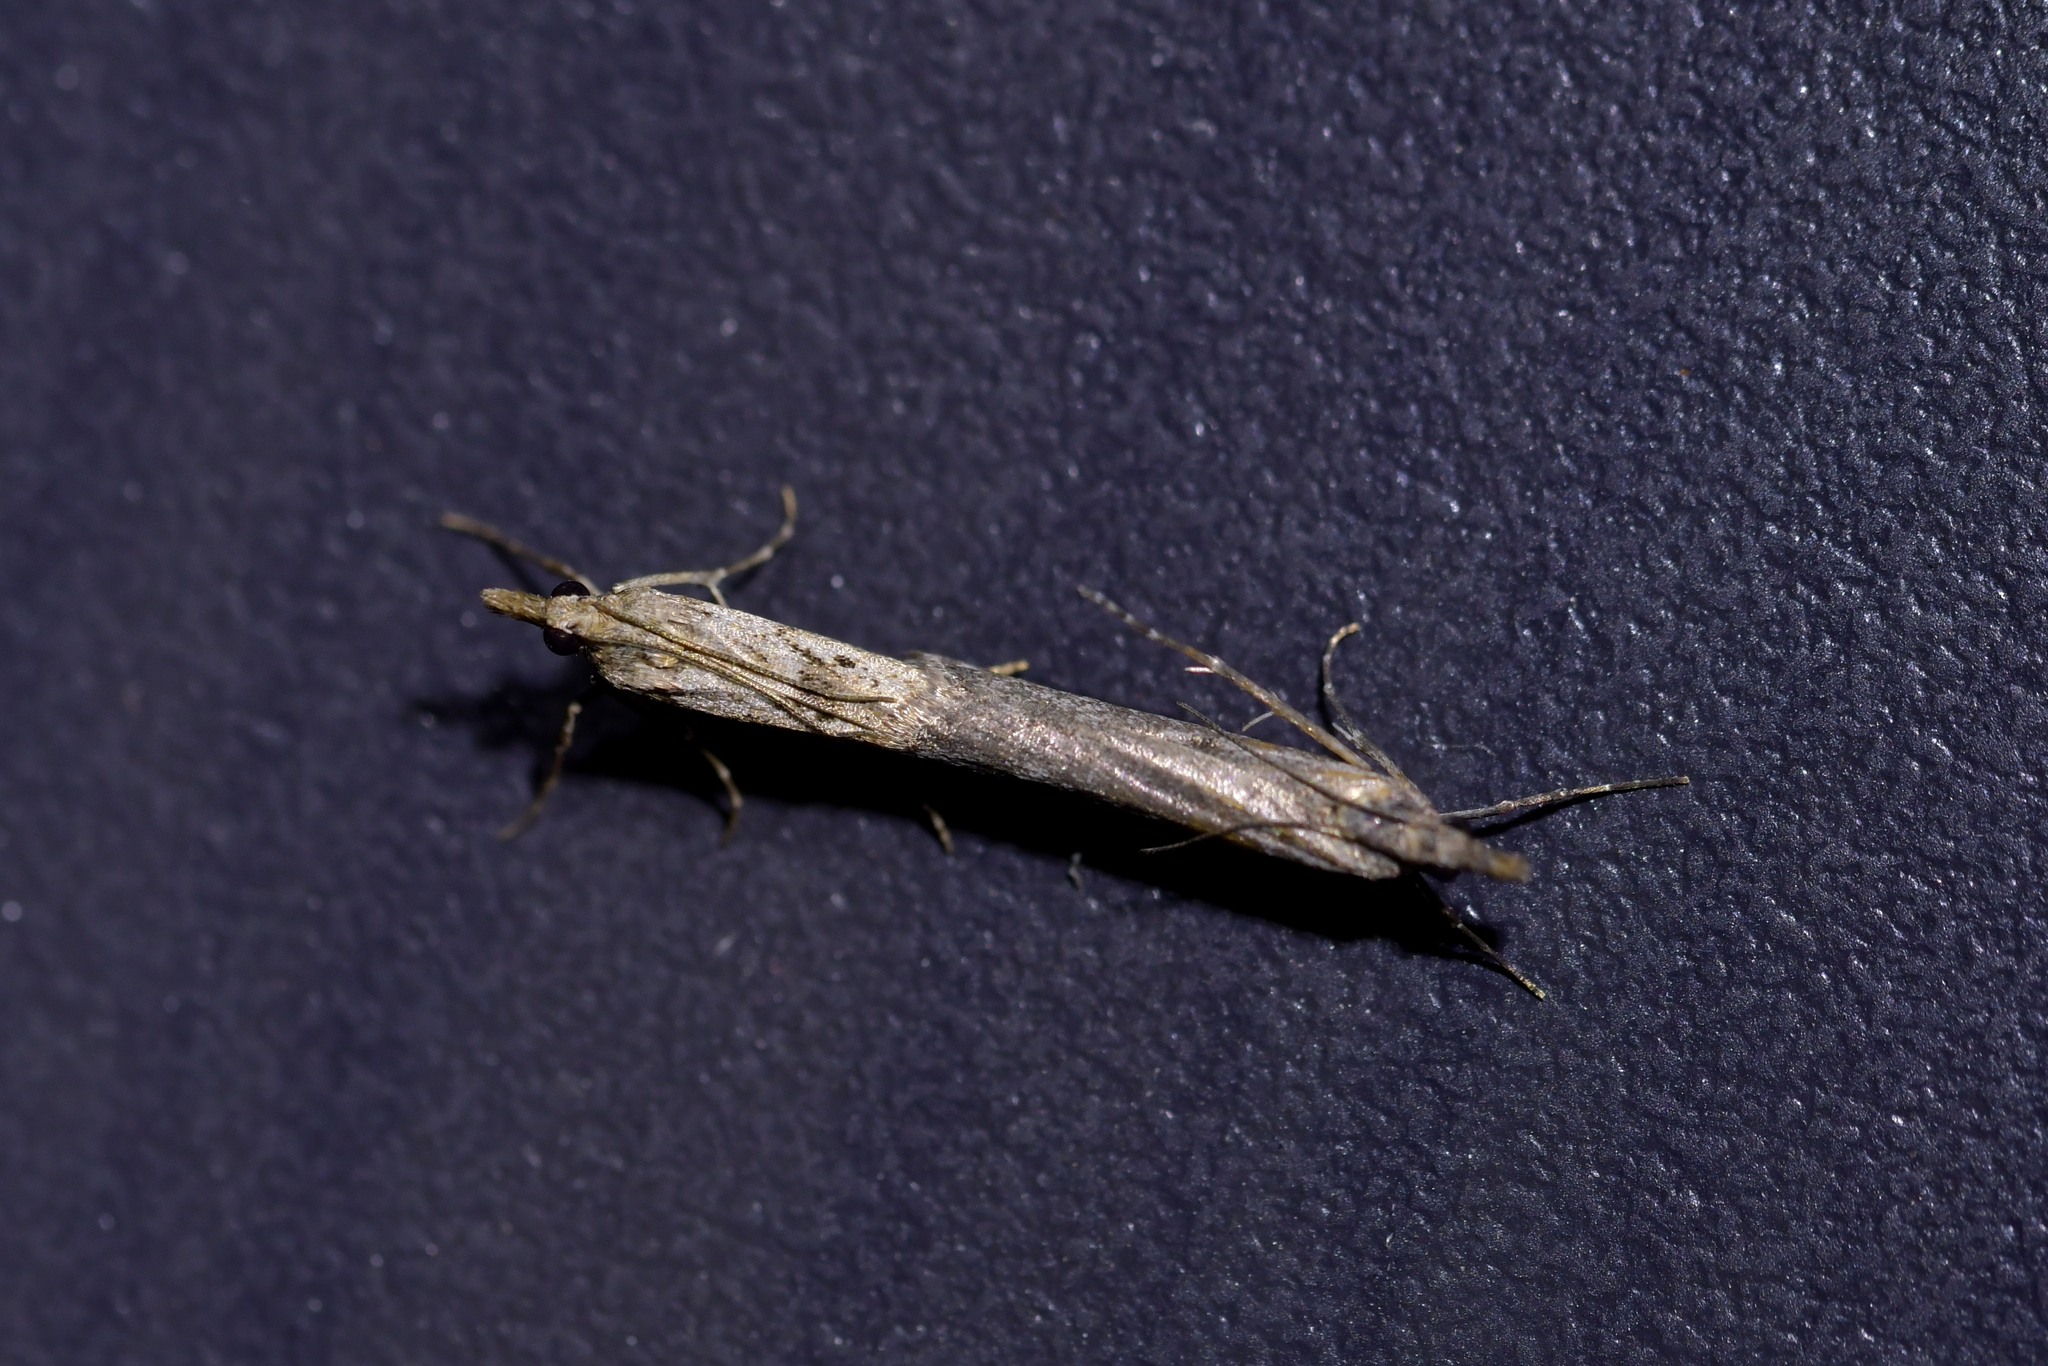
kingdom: Animalia
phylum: Arthropoda
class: Insecta
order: Lepidoptera
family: Crambidae
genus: Eudonia
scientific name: Eudonia leptalea
